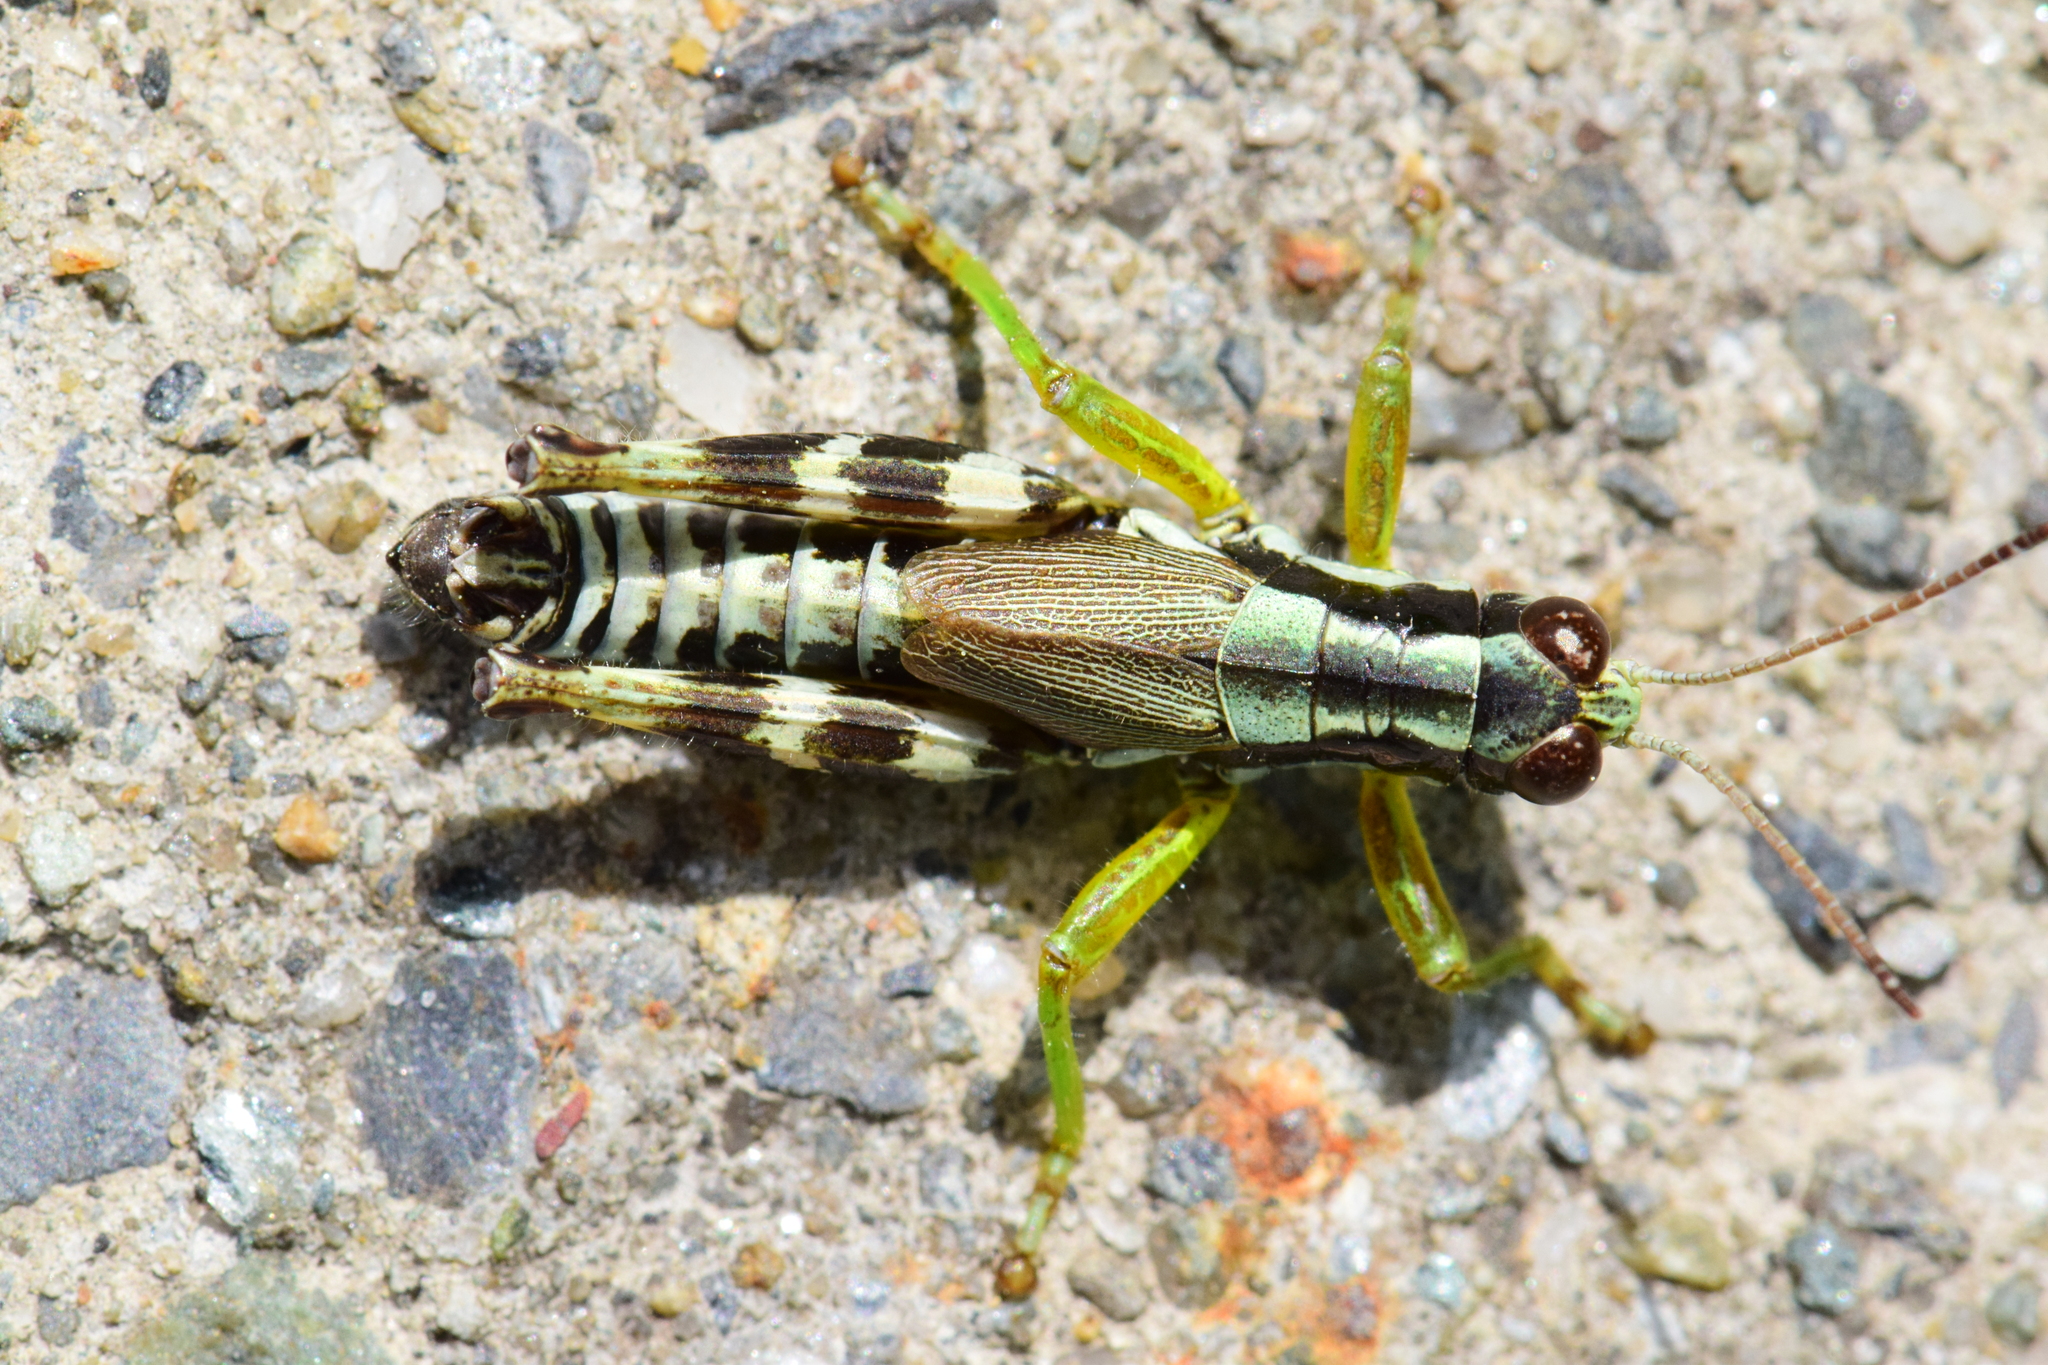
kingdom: Animalia
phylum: Arthropoda
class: Insecta
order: Orthoptera
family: Acrididae
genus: Melanoplus
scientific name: Melanoplus viridipes
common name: Green-legged locust
